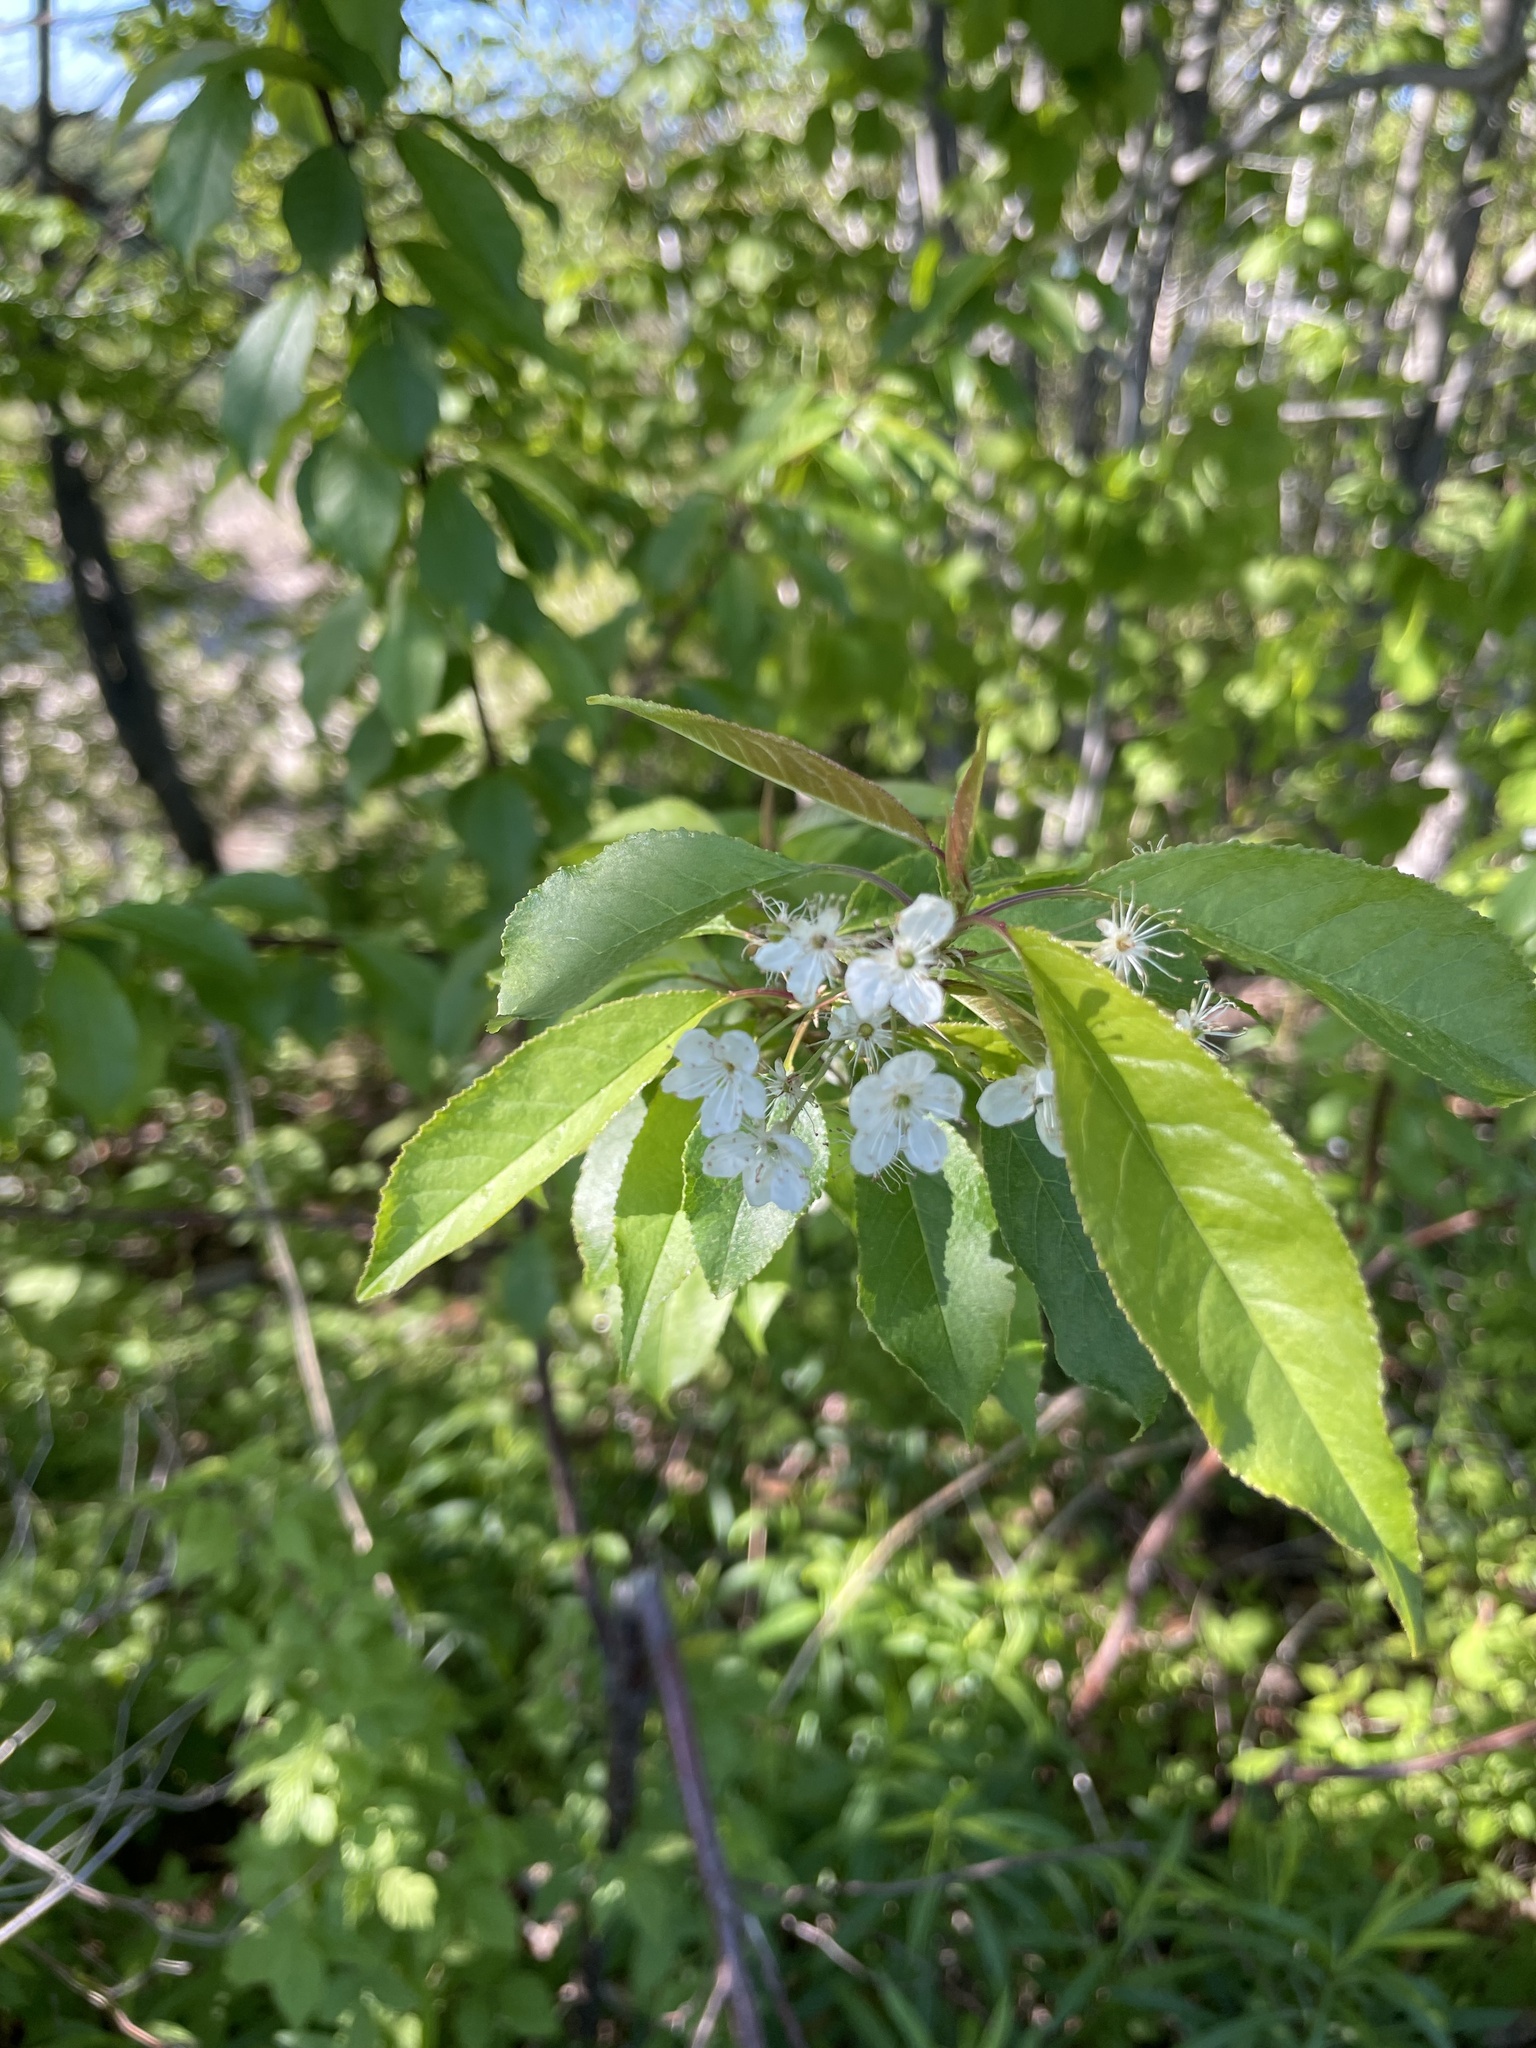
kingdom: Plantae
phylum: Tracheophyta
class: Magnoliopsida
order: Rosales
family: Rosaceae
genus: Prunus
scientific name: Prunus pensylvanica
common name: Pin cherry
